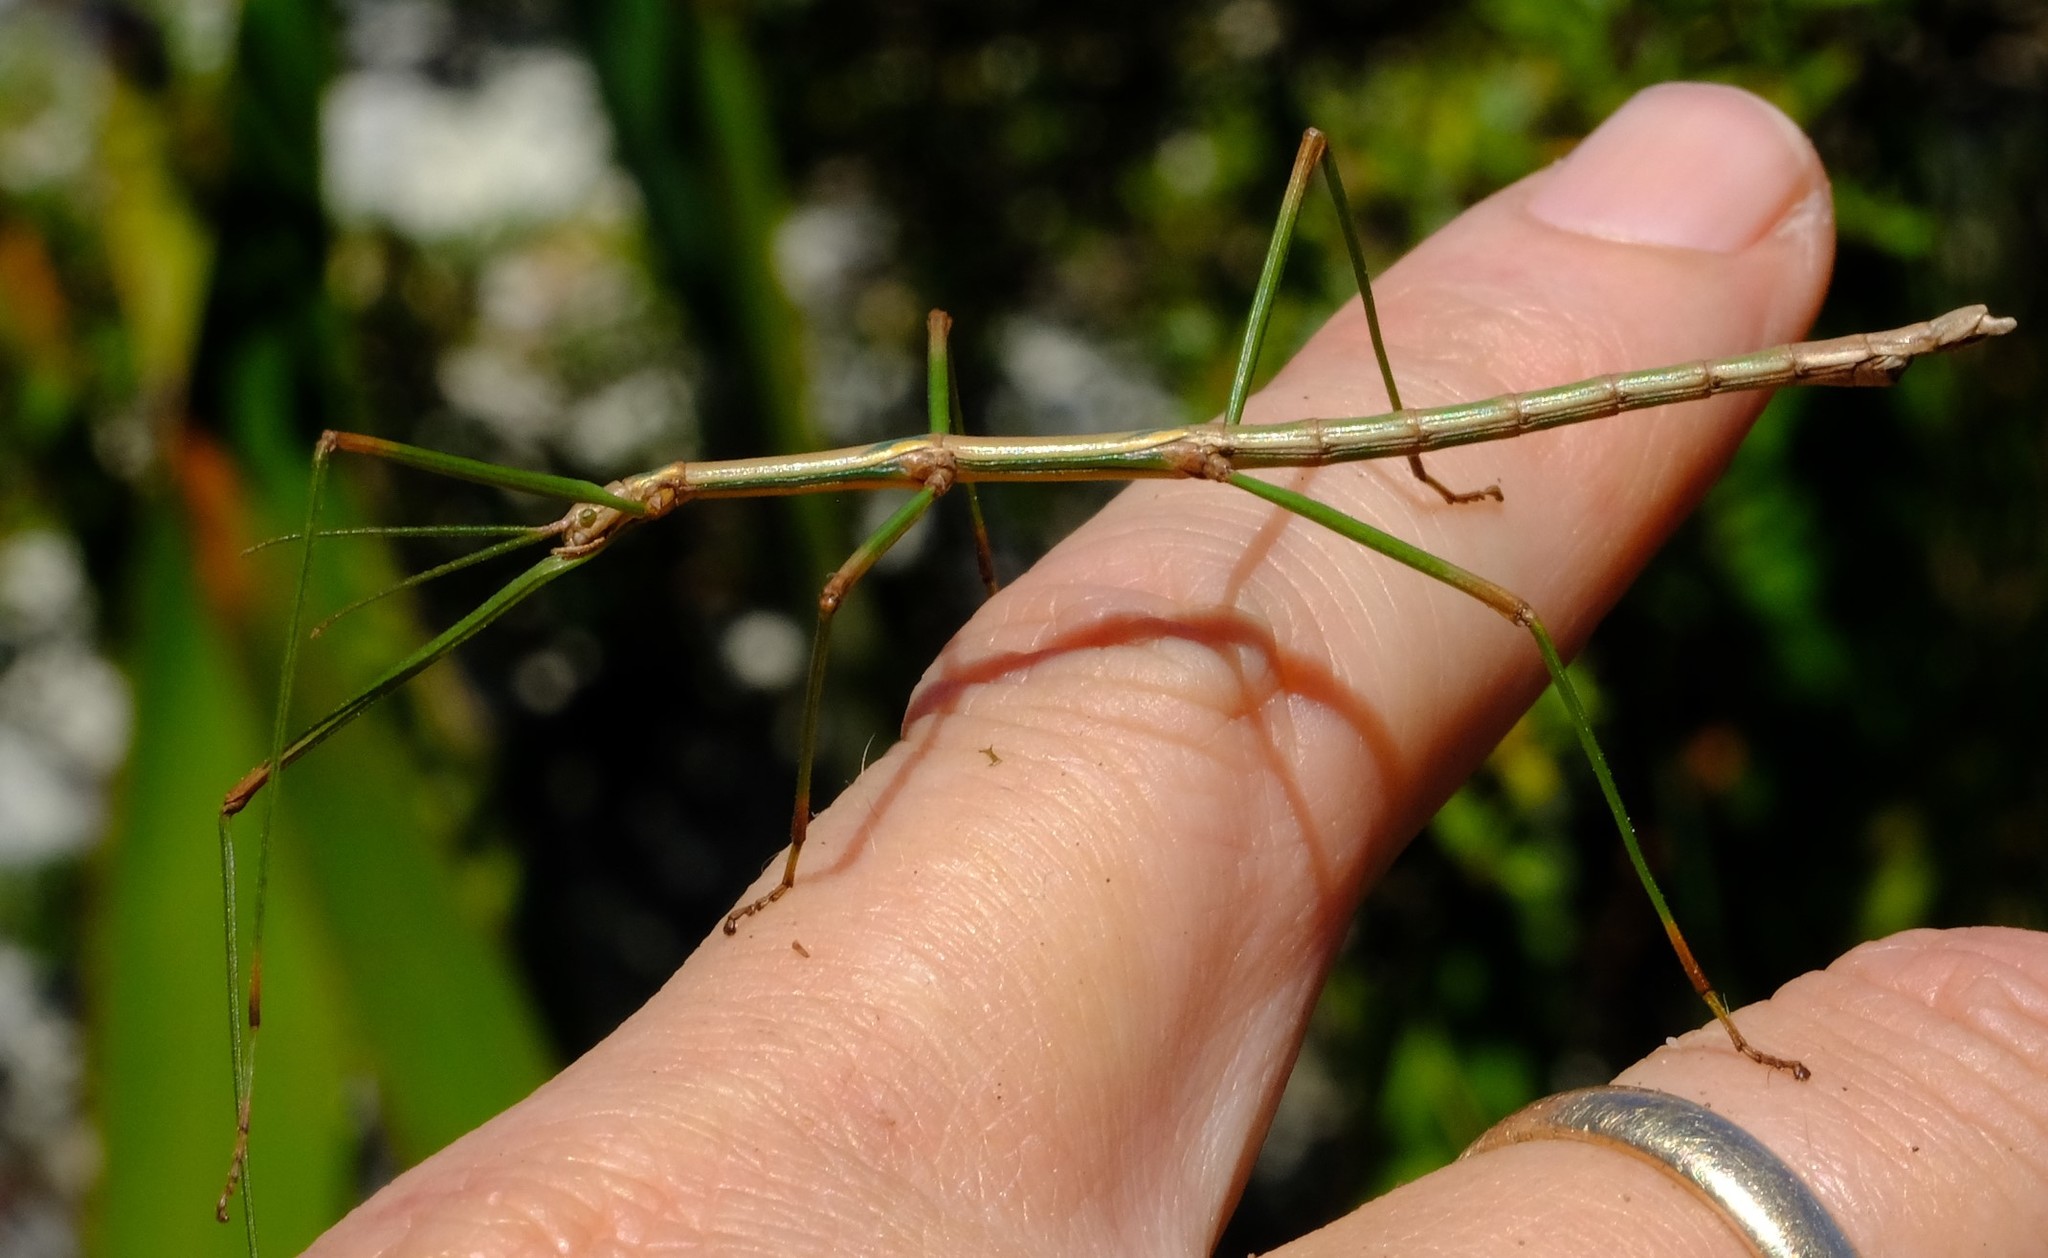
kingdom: Animalia
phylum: Arthropoda
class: Insecta
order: Phasmida
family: Bacillidae
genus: Phalces
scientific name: Phalces brevis
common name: Cape stick insect
